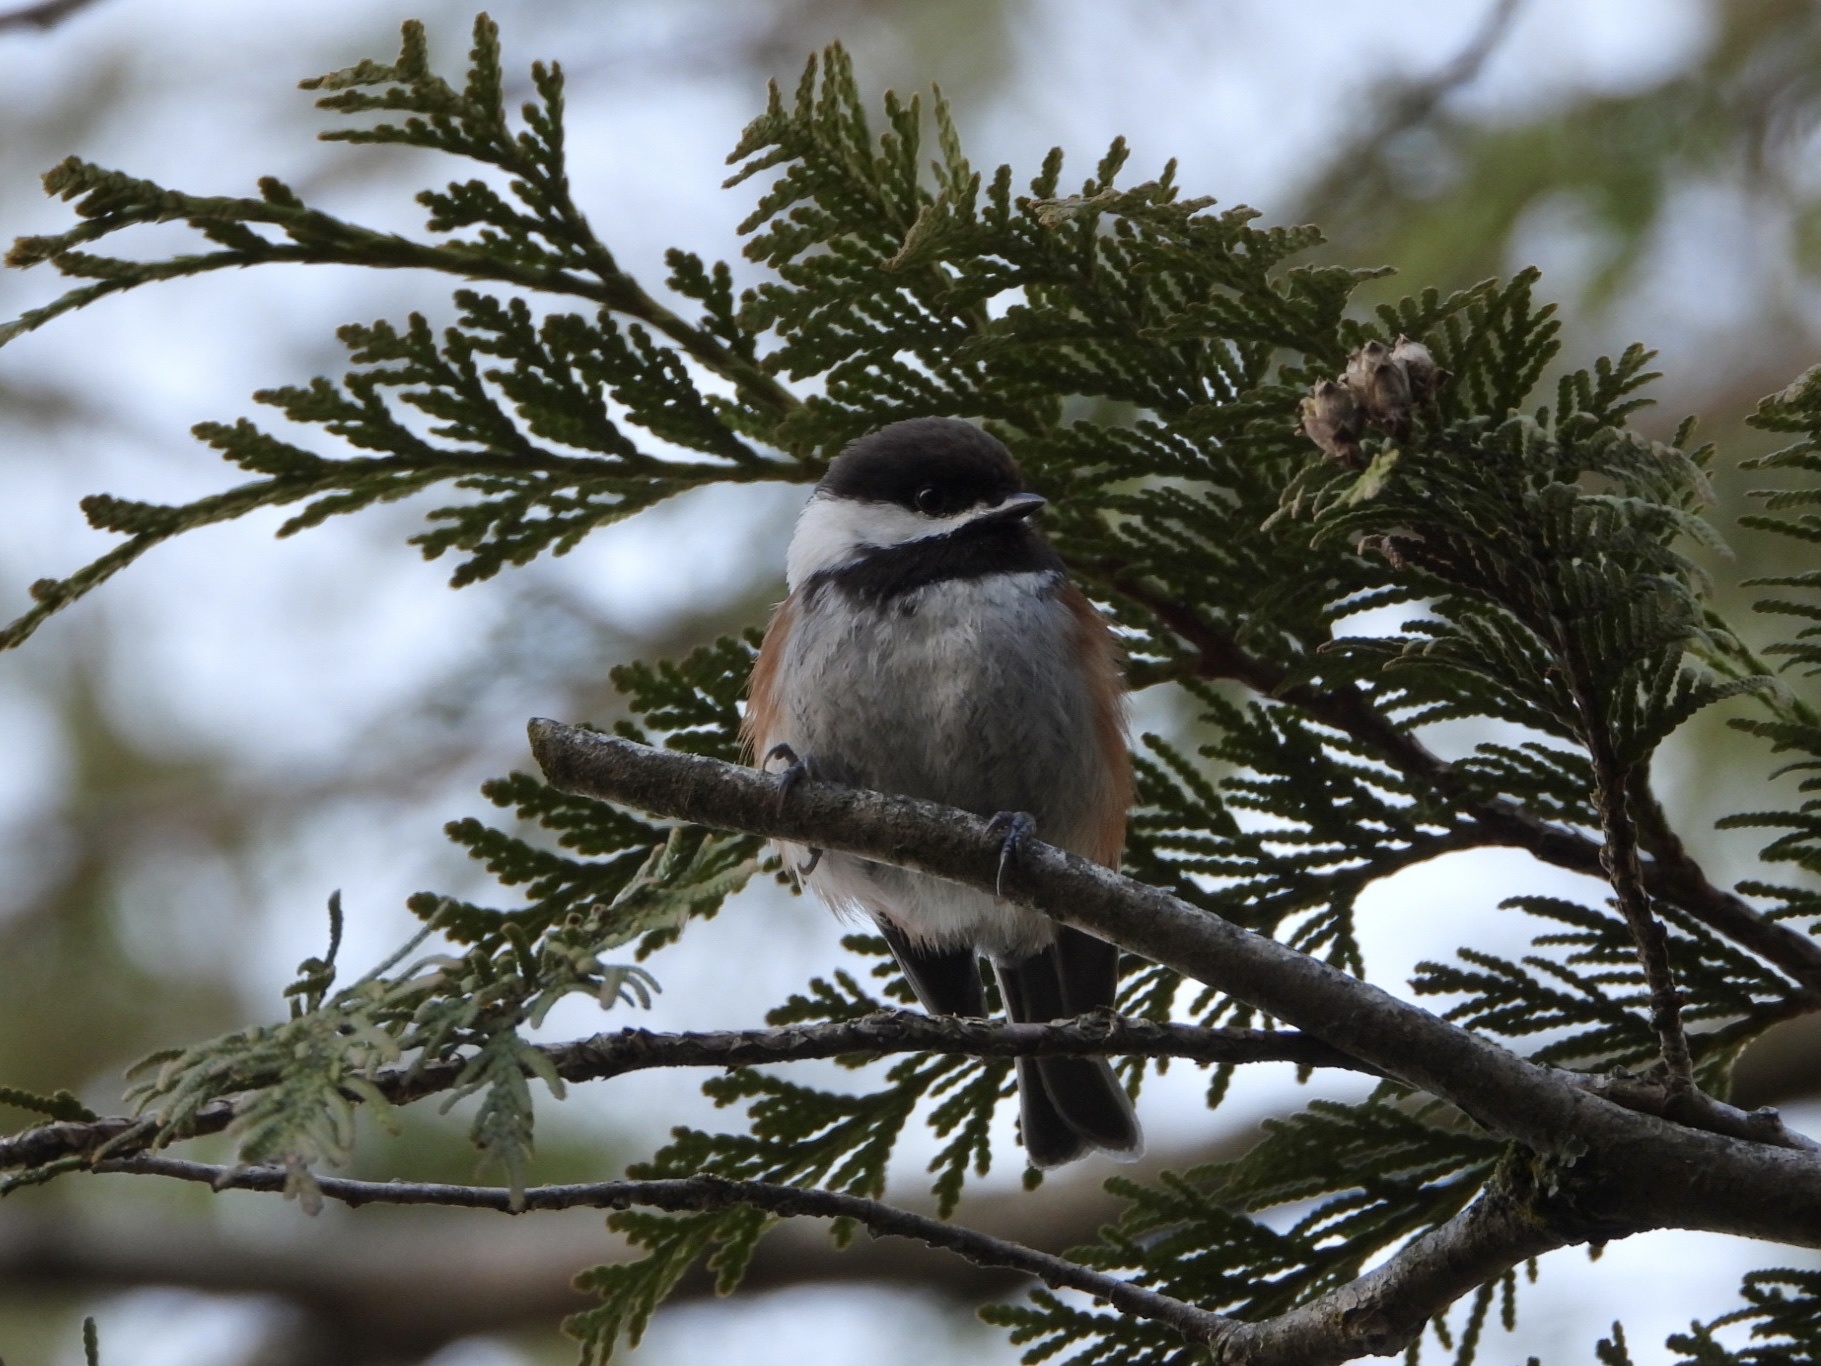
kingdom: Animalia
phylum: Chordata
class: Aves
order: Passeriformes
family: Paridae
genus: Poecile
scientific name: Poecile rufescens
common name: Chestnut-backed chickadee
